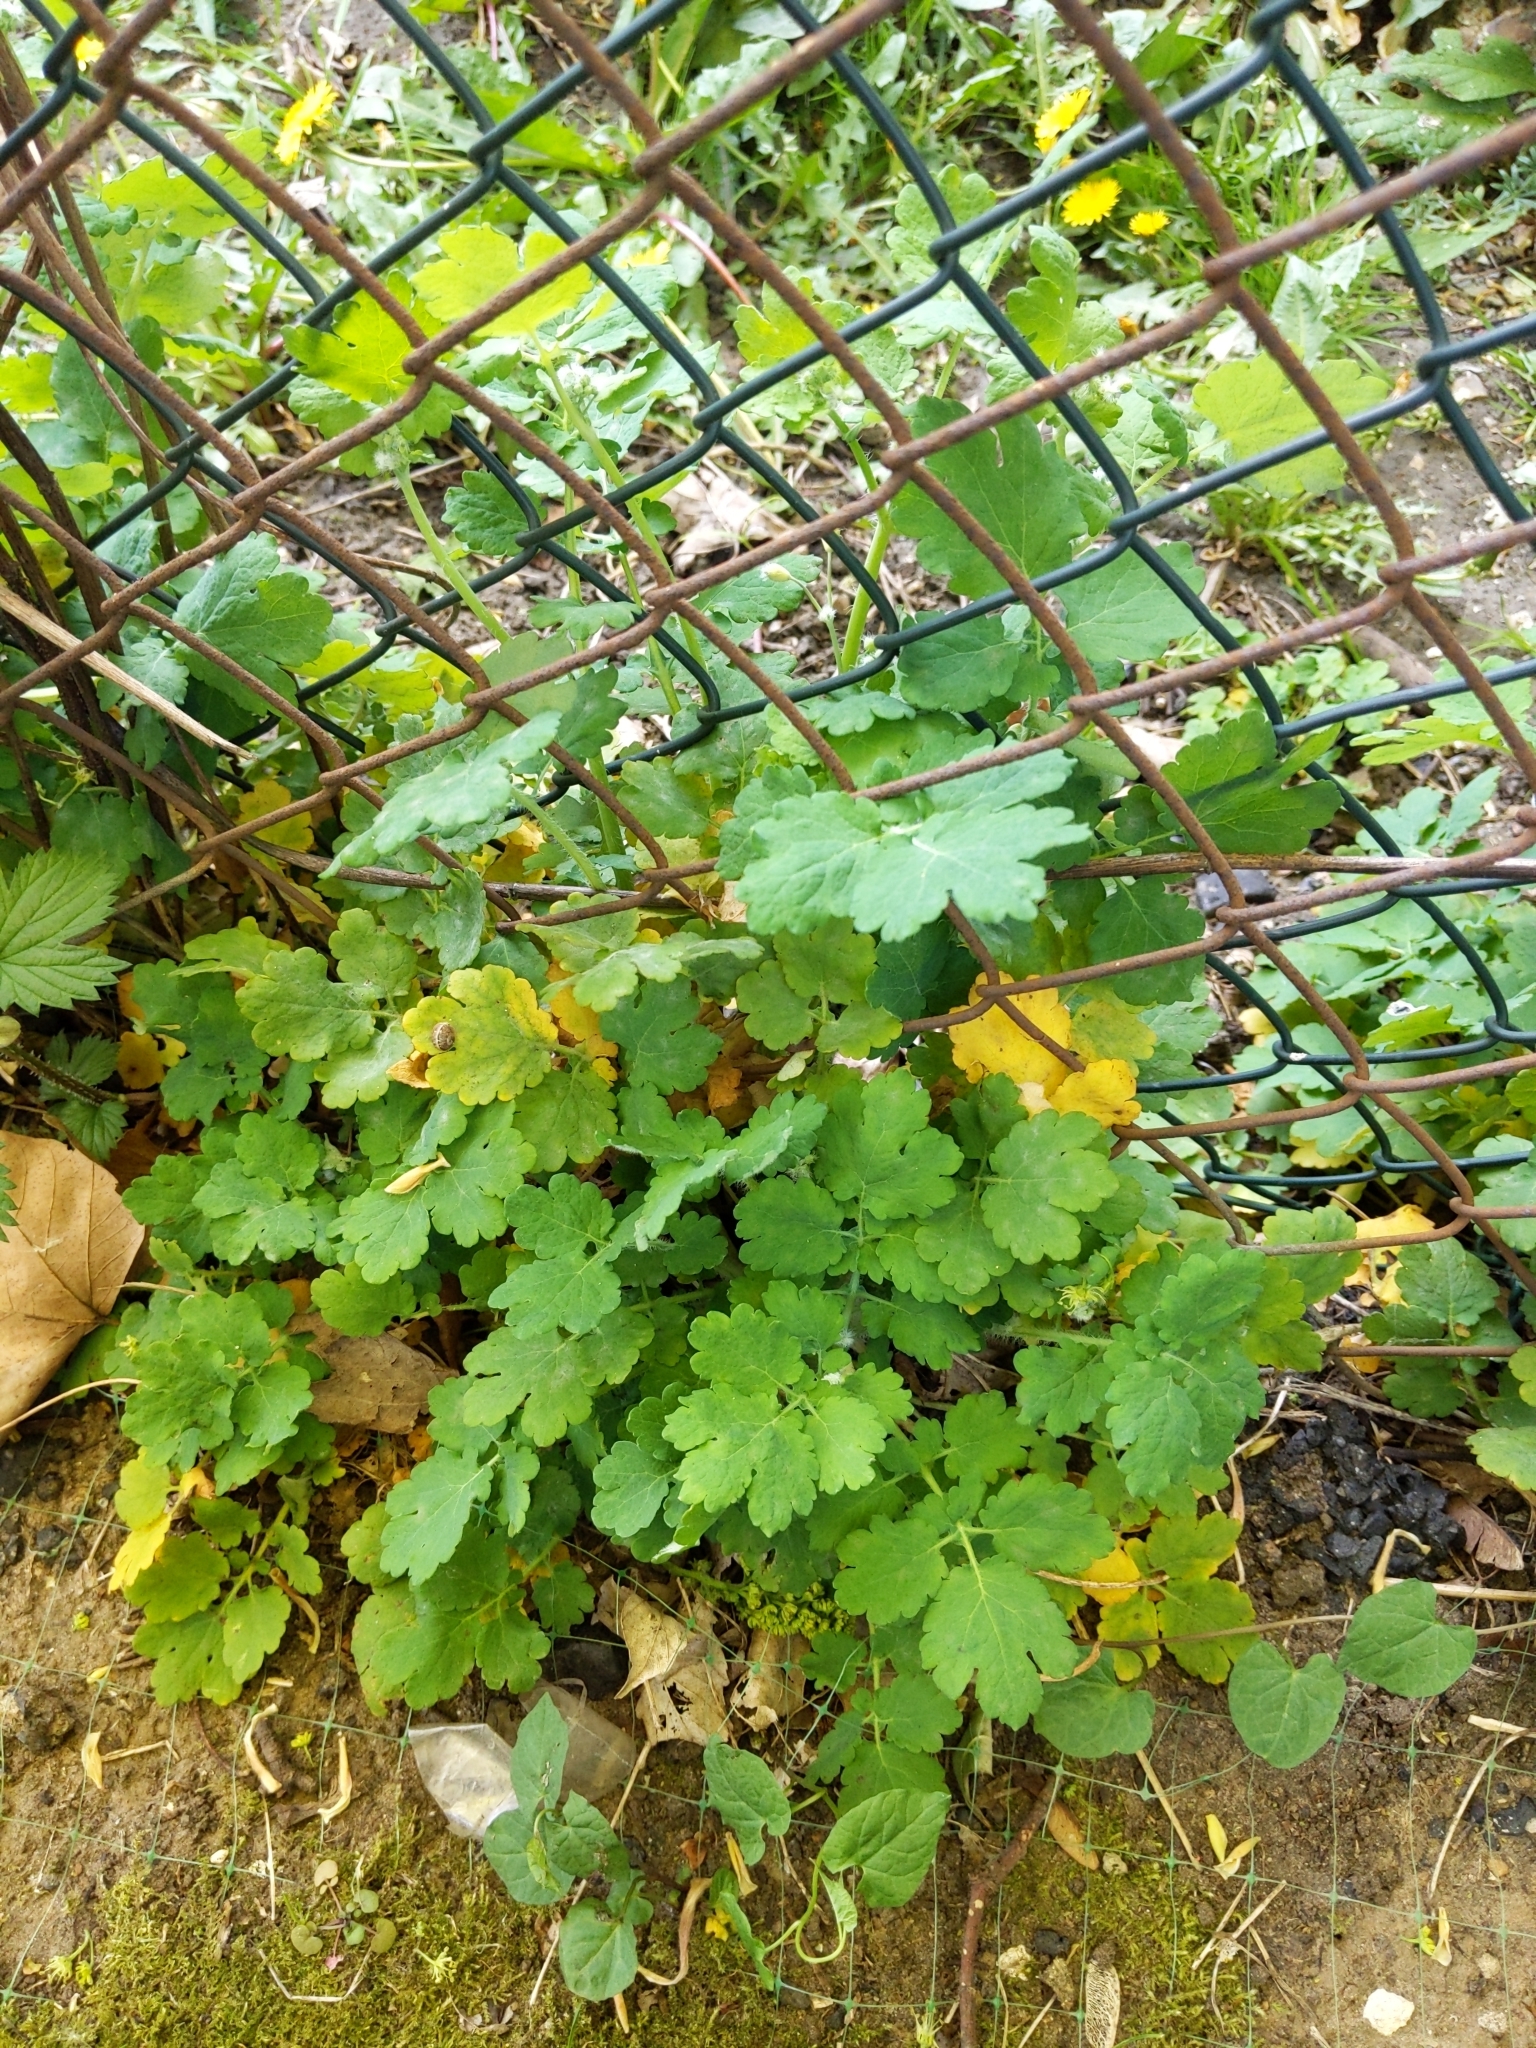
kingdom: Plantae
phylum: Tracheophyta
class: Magnoliopsida
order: Ranunculales
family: Papaveraceae
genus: Chelidonium
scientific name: Chelidonium majus
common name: Greater celandine
